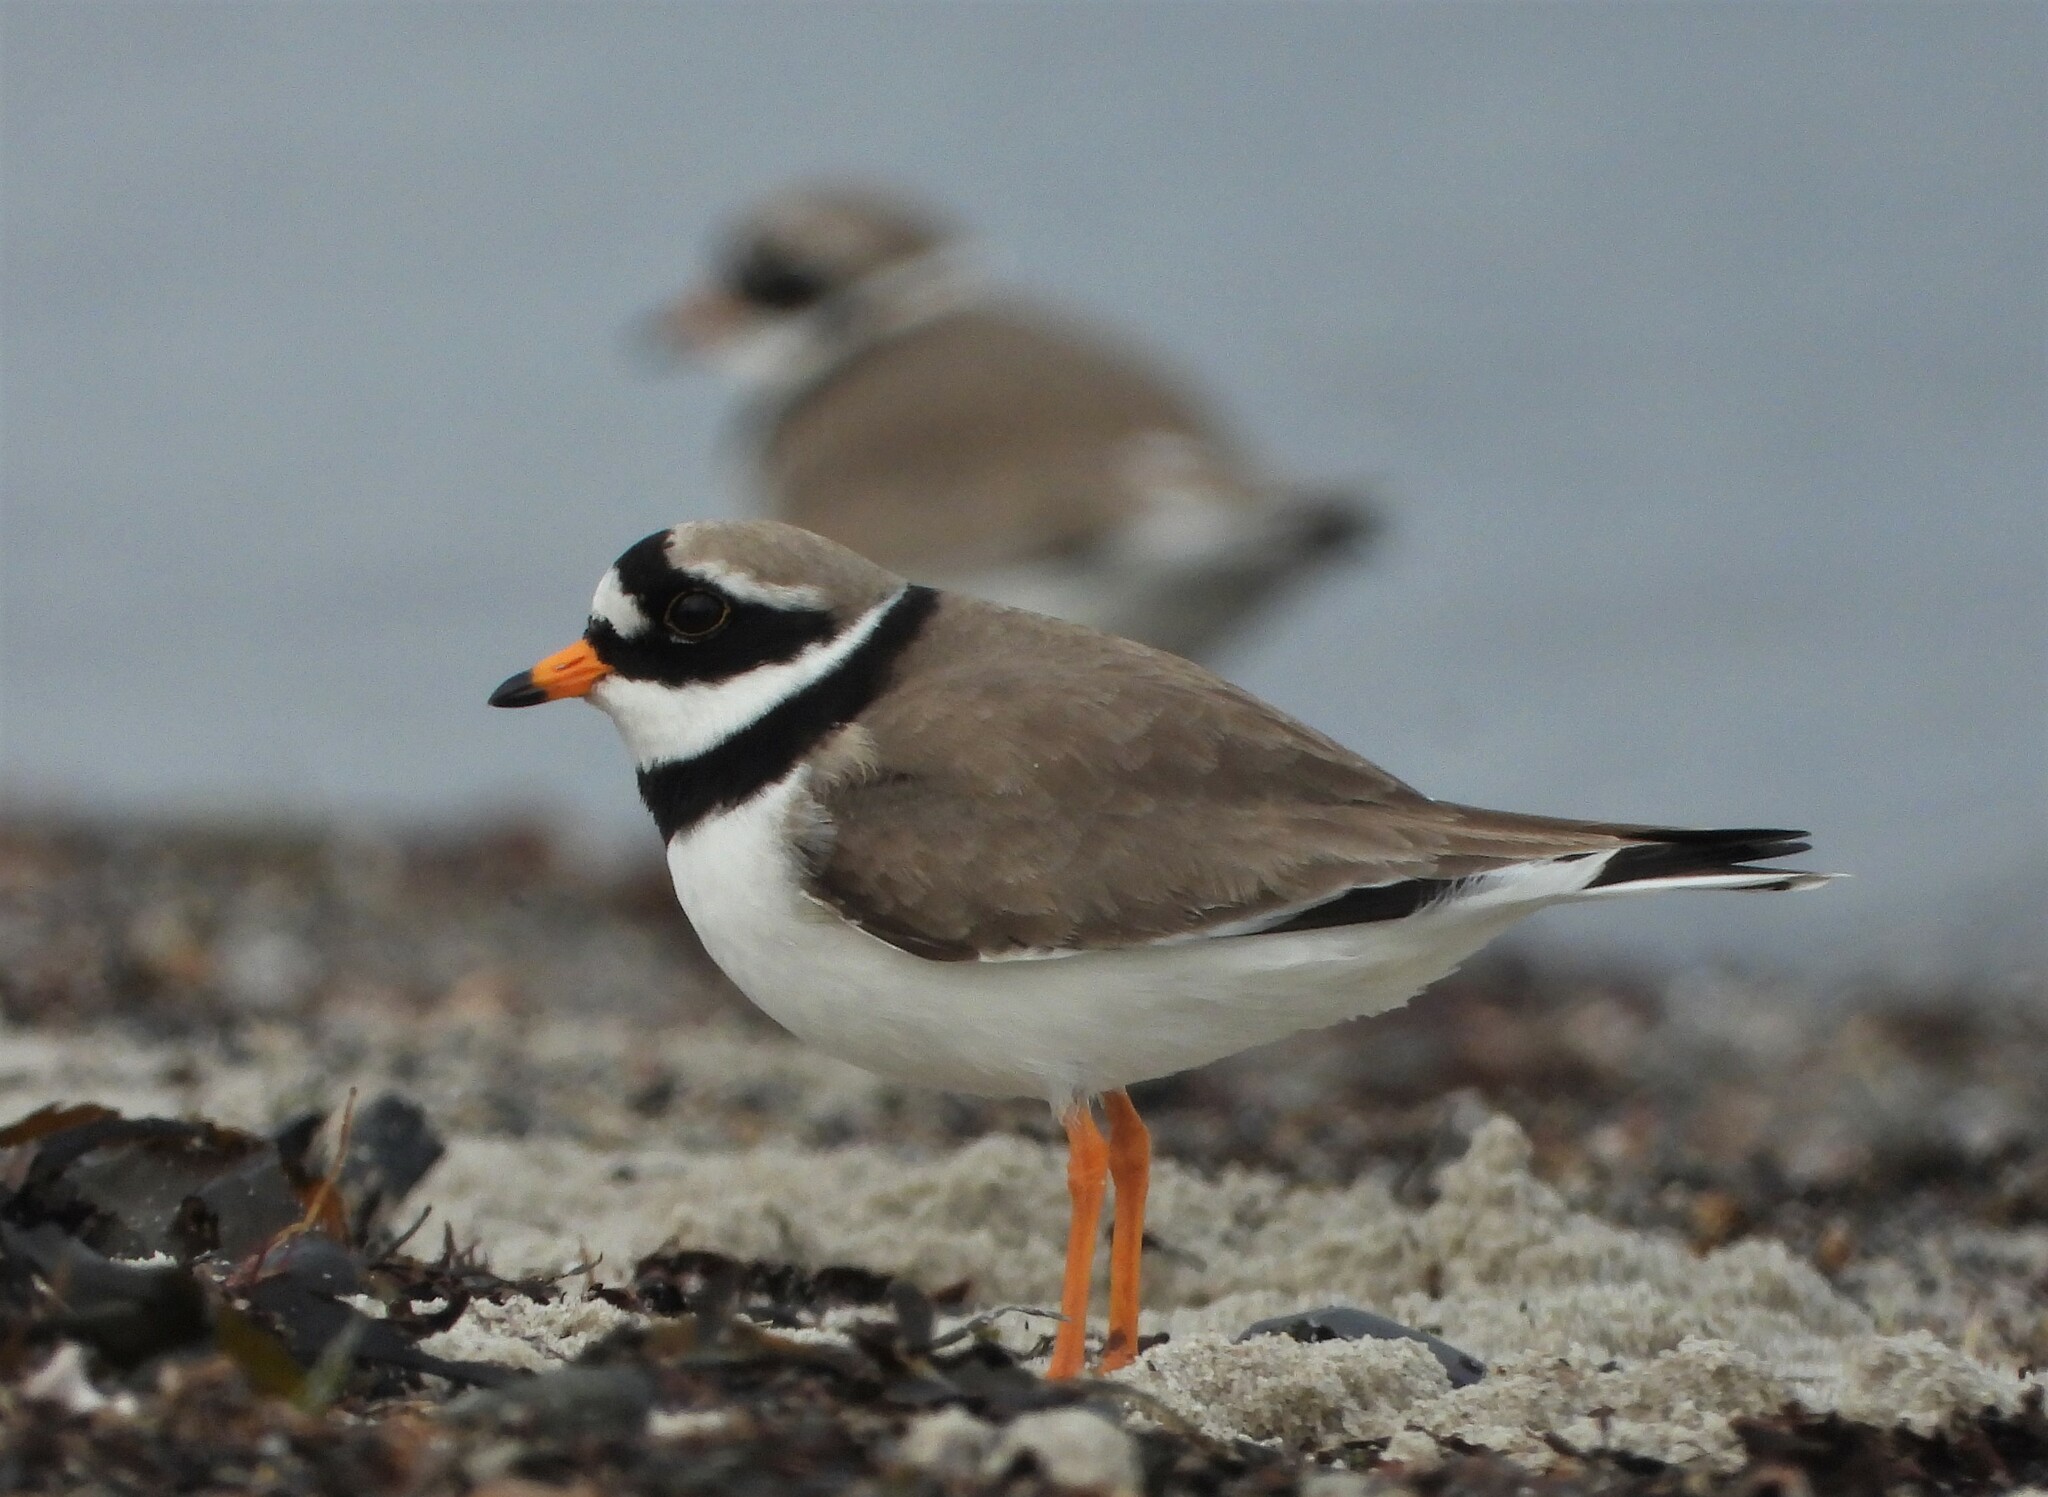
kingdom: Animalia
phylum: Chordata
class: Aves
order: Charadriiformes
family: Charadriidae
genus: Charadrius
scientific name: Charadrius hiaticula
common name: Common ringed plover
